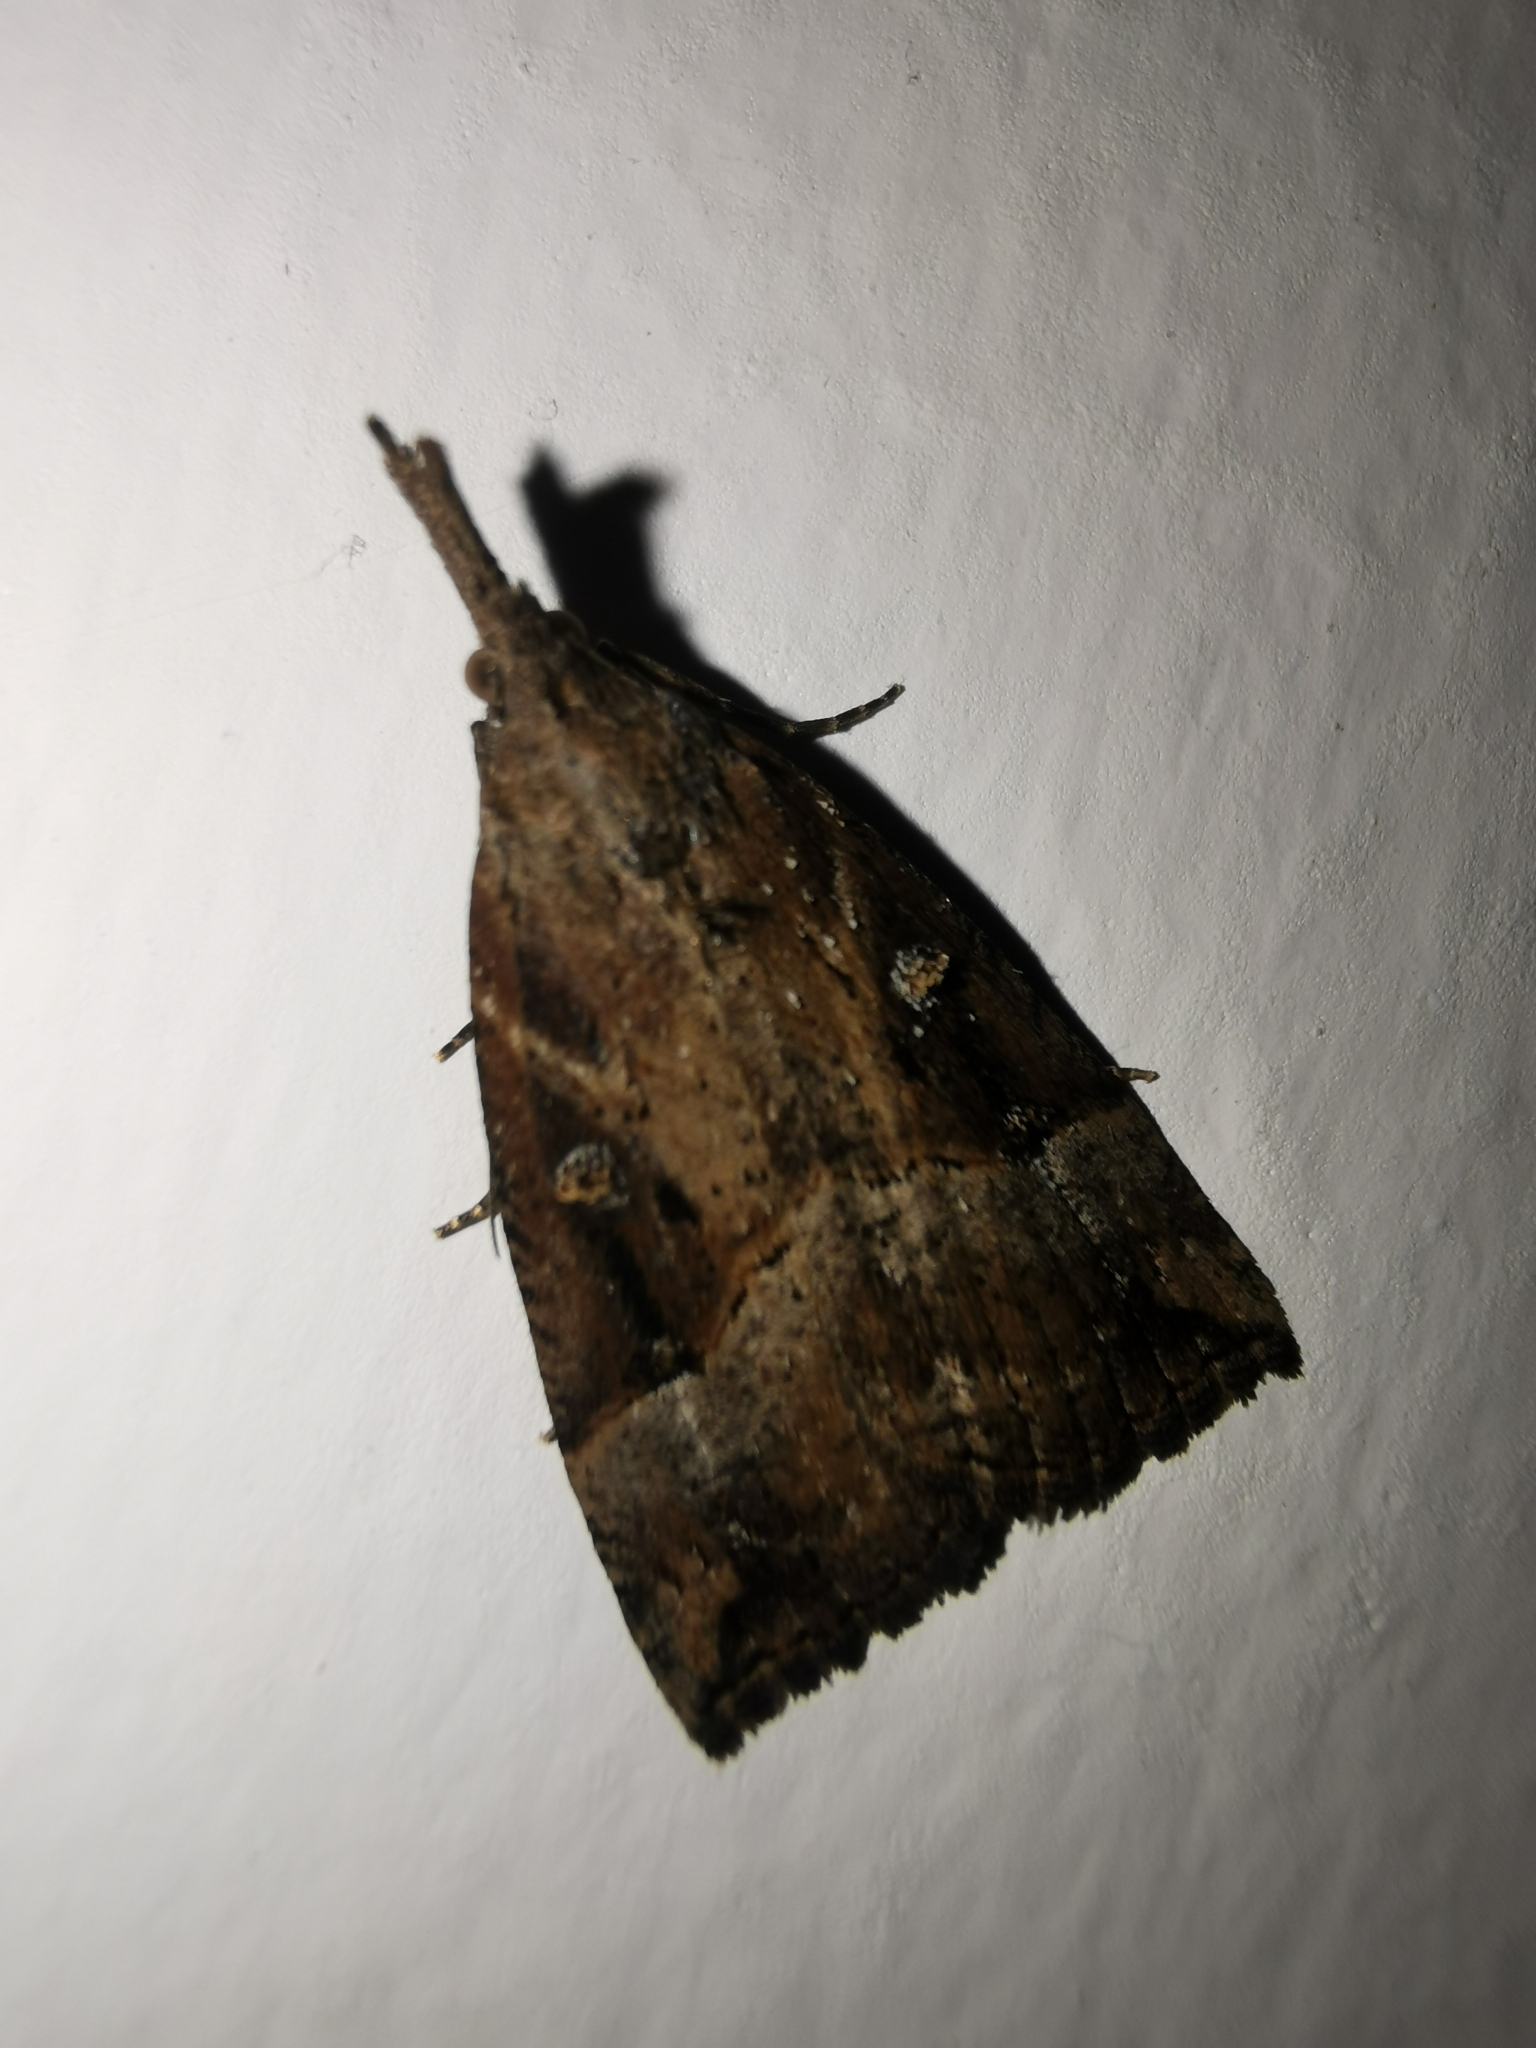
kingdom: Animalia
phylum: Arthropoda
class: Insecta
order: Lepidoptera
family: Erebidae
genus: Hypena
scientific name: Hypena rostralis
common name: Buttoned snout
